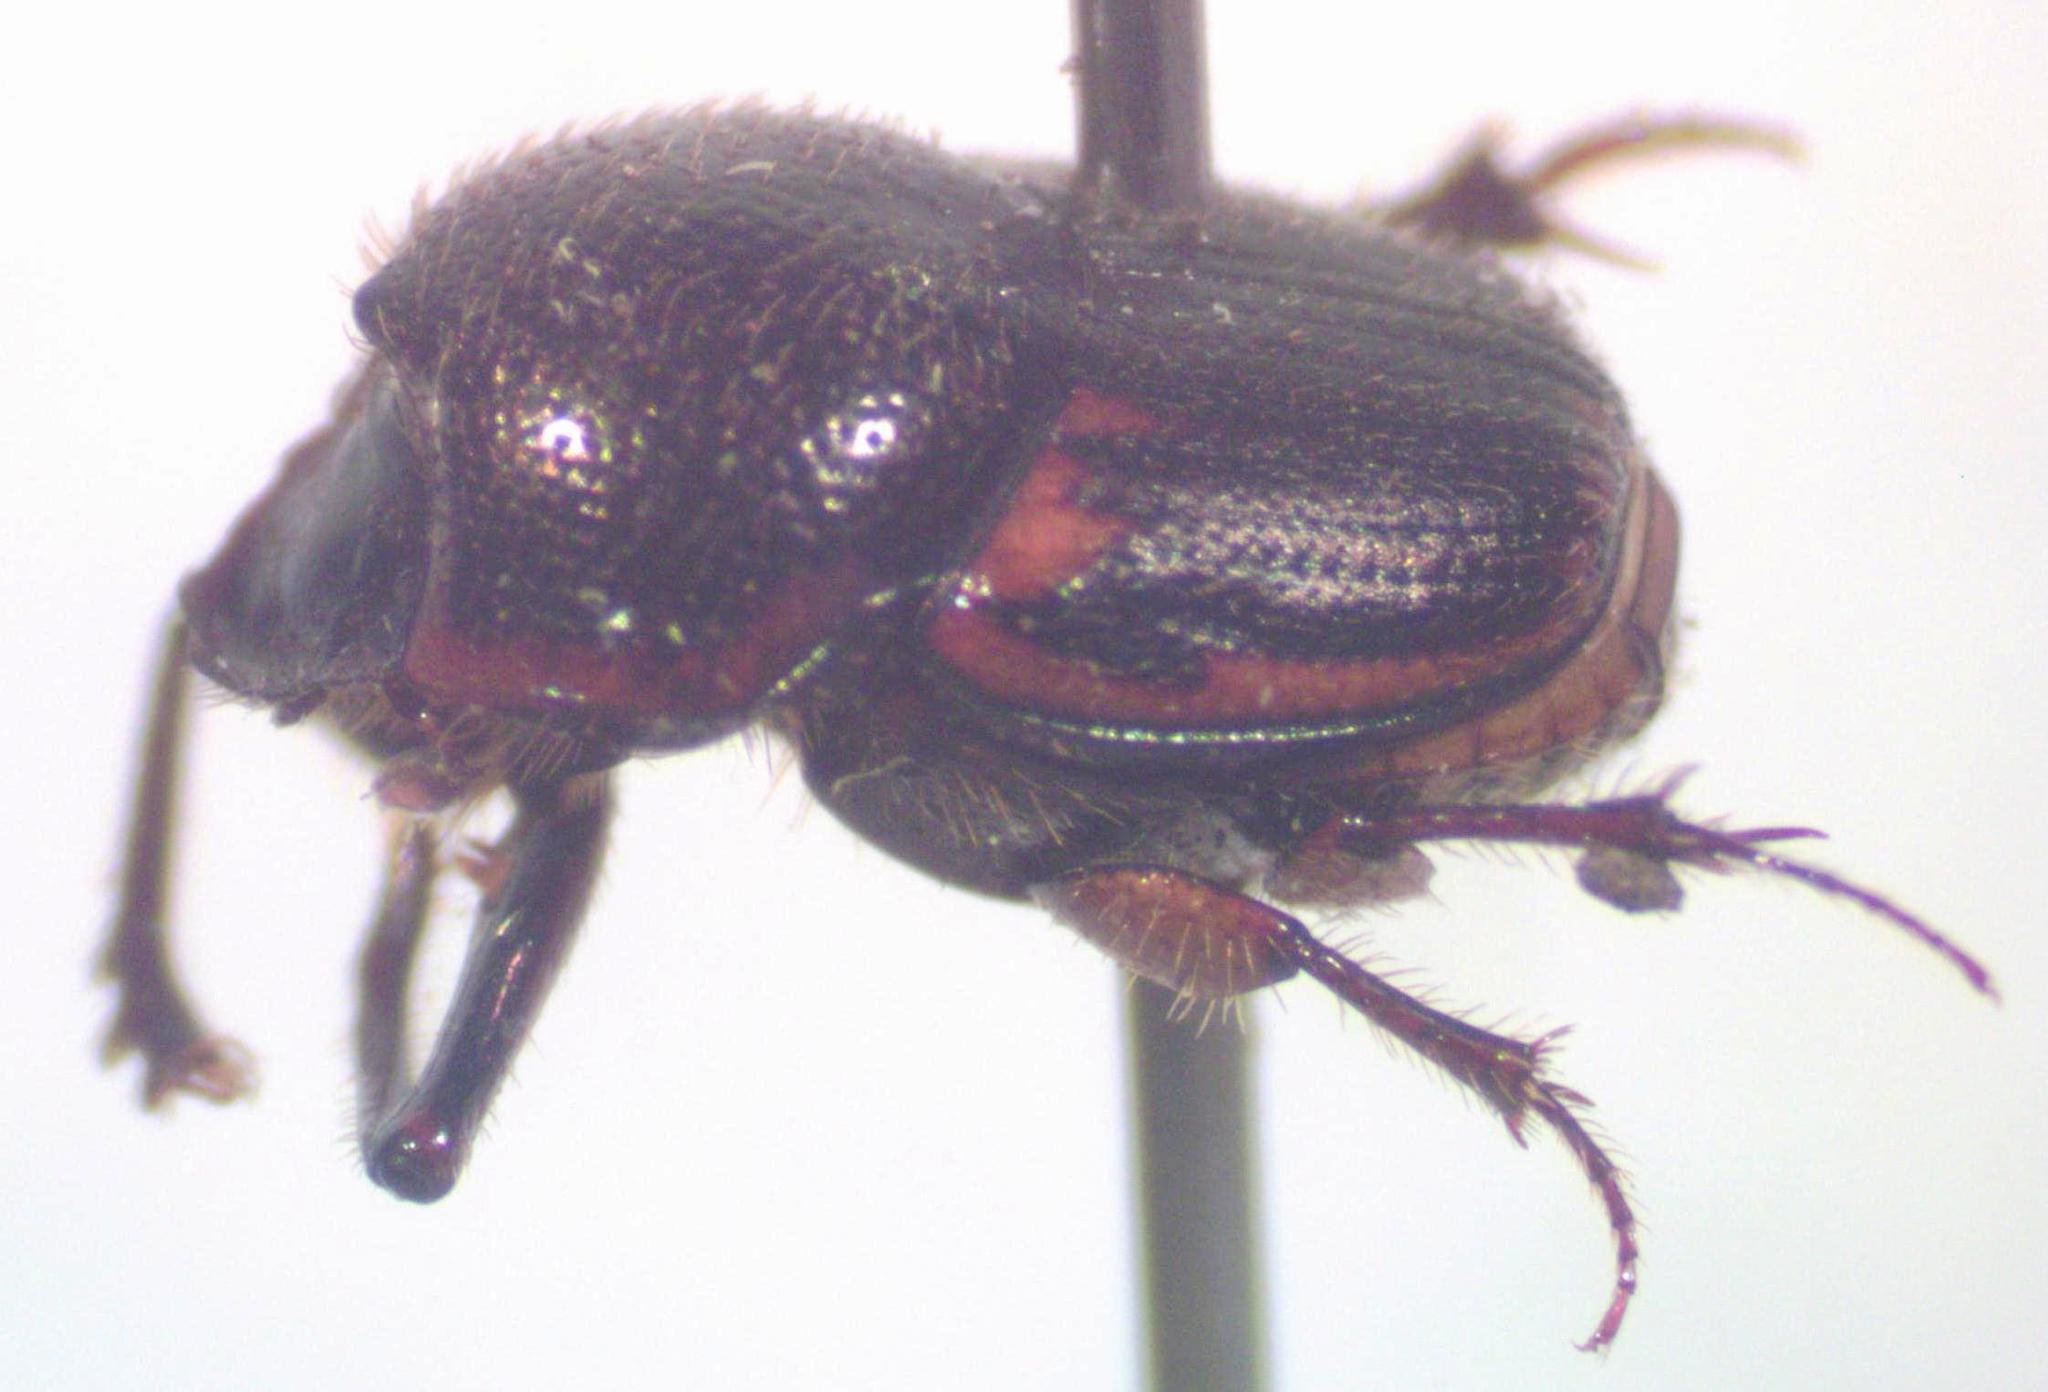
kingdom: Animalia
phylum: Arthropoda
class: Insecta
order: Coleoptera
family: Scarabaeidae
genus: Onthophagus
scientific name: Onthophagus landolti
